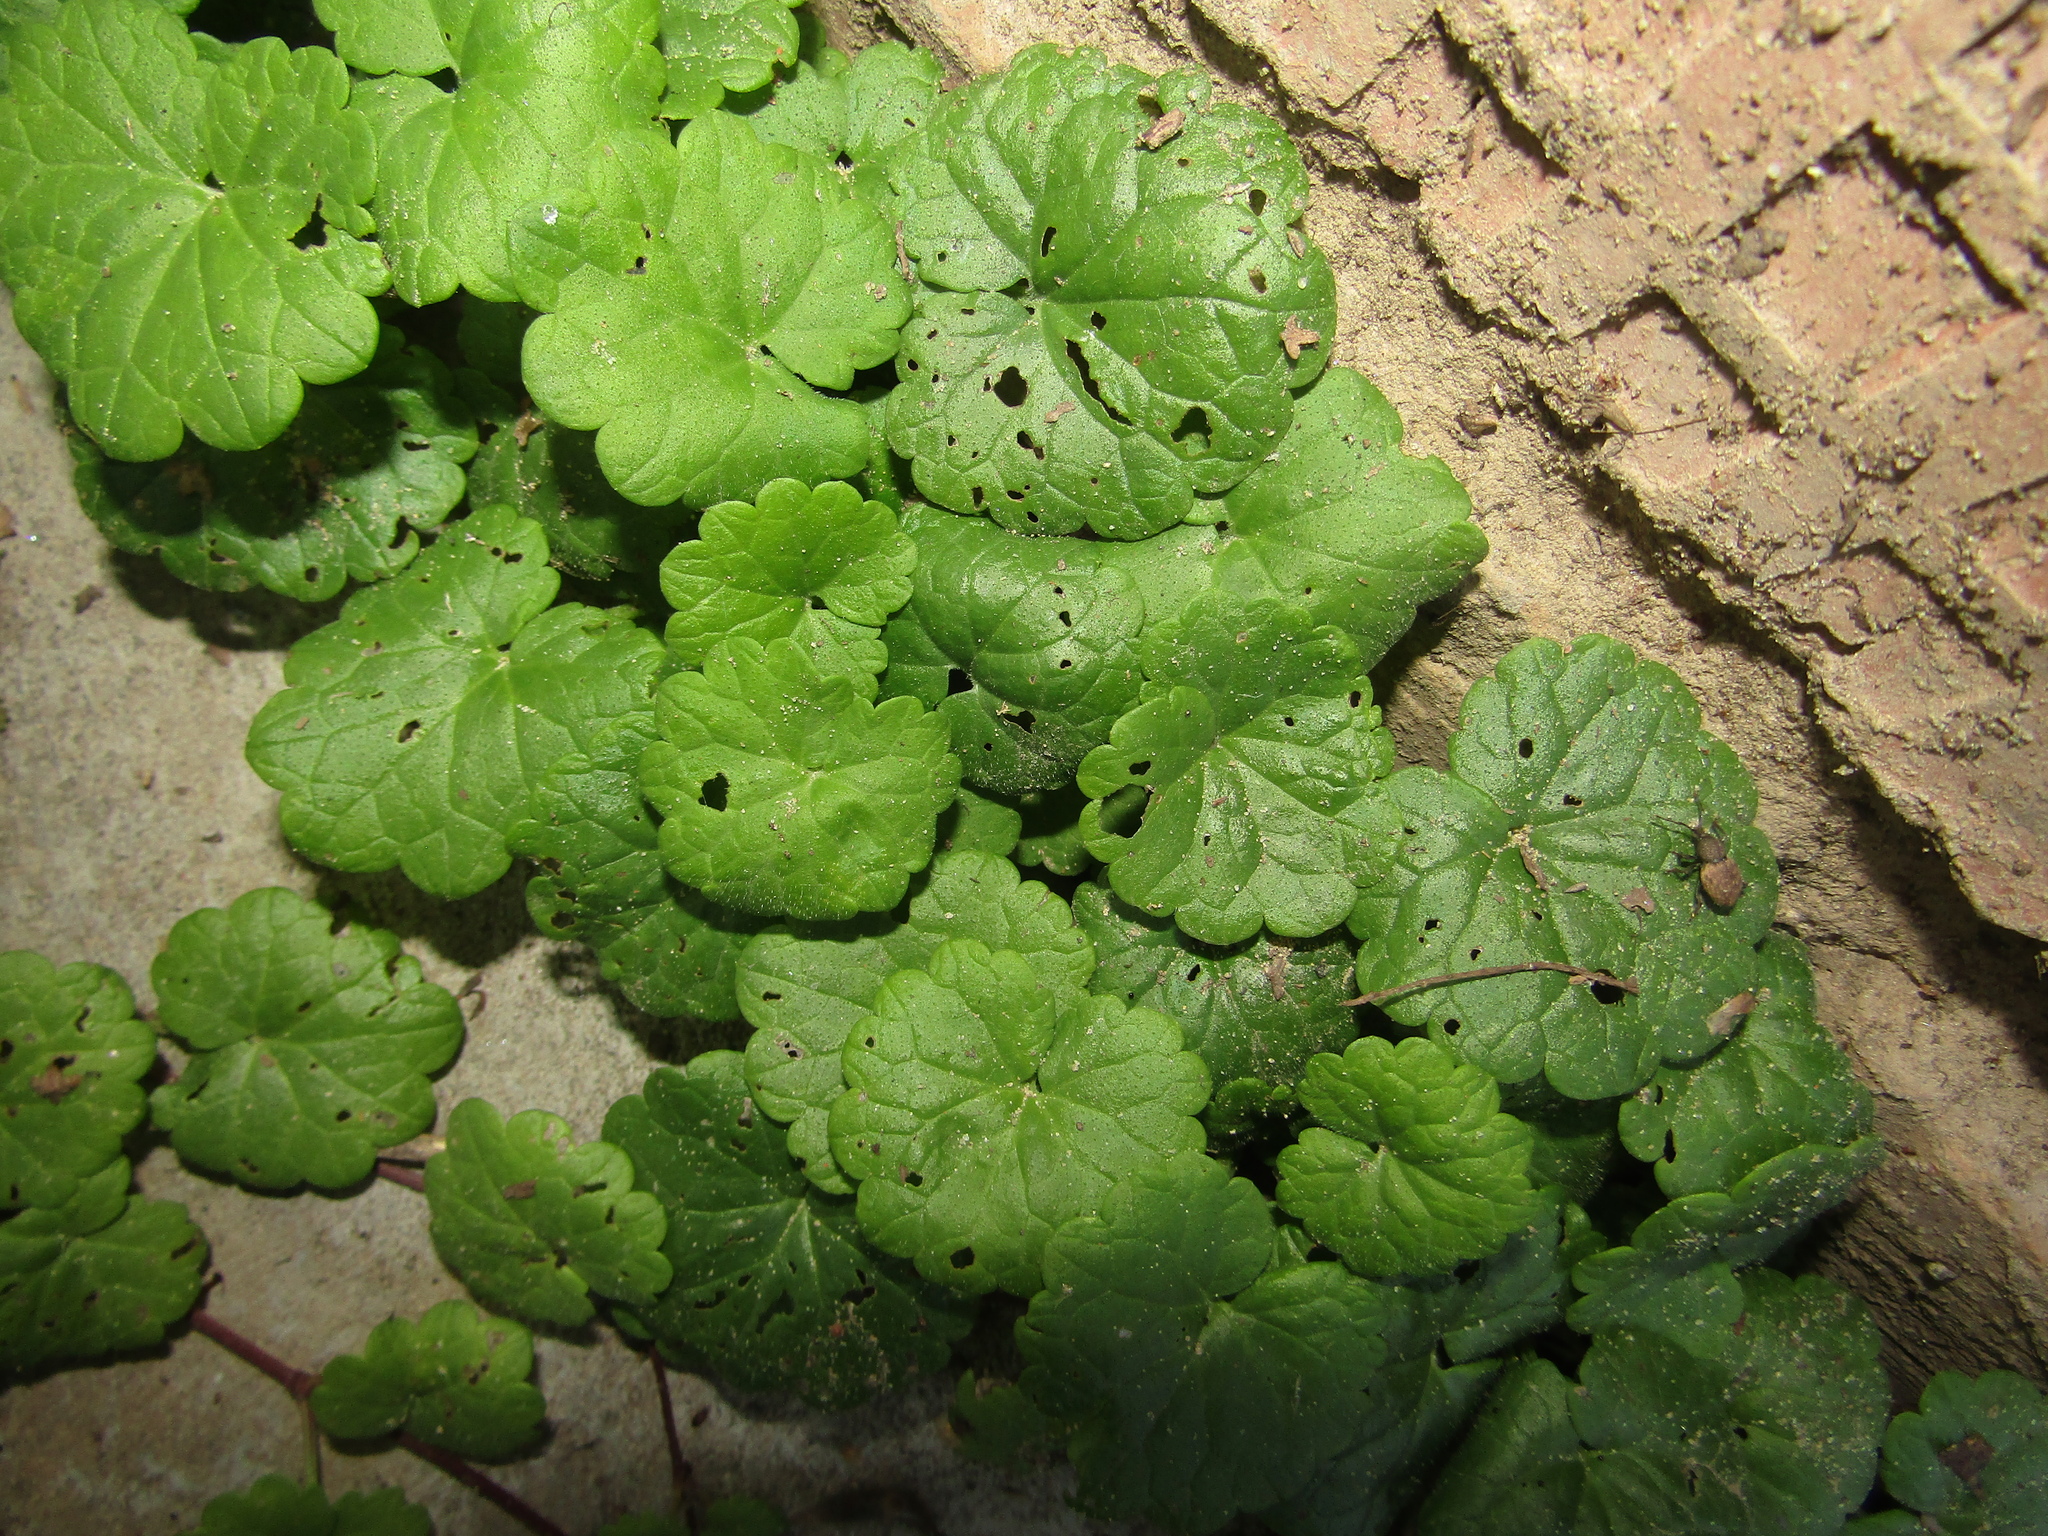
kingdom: Plantae
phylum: Tracheophyta
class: Magnoliopsida
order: Lamiales
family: Lamiaceae
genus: Glechoma
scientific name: Glechoma hederacea
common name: Ground ivy
